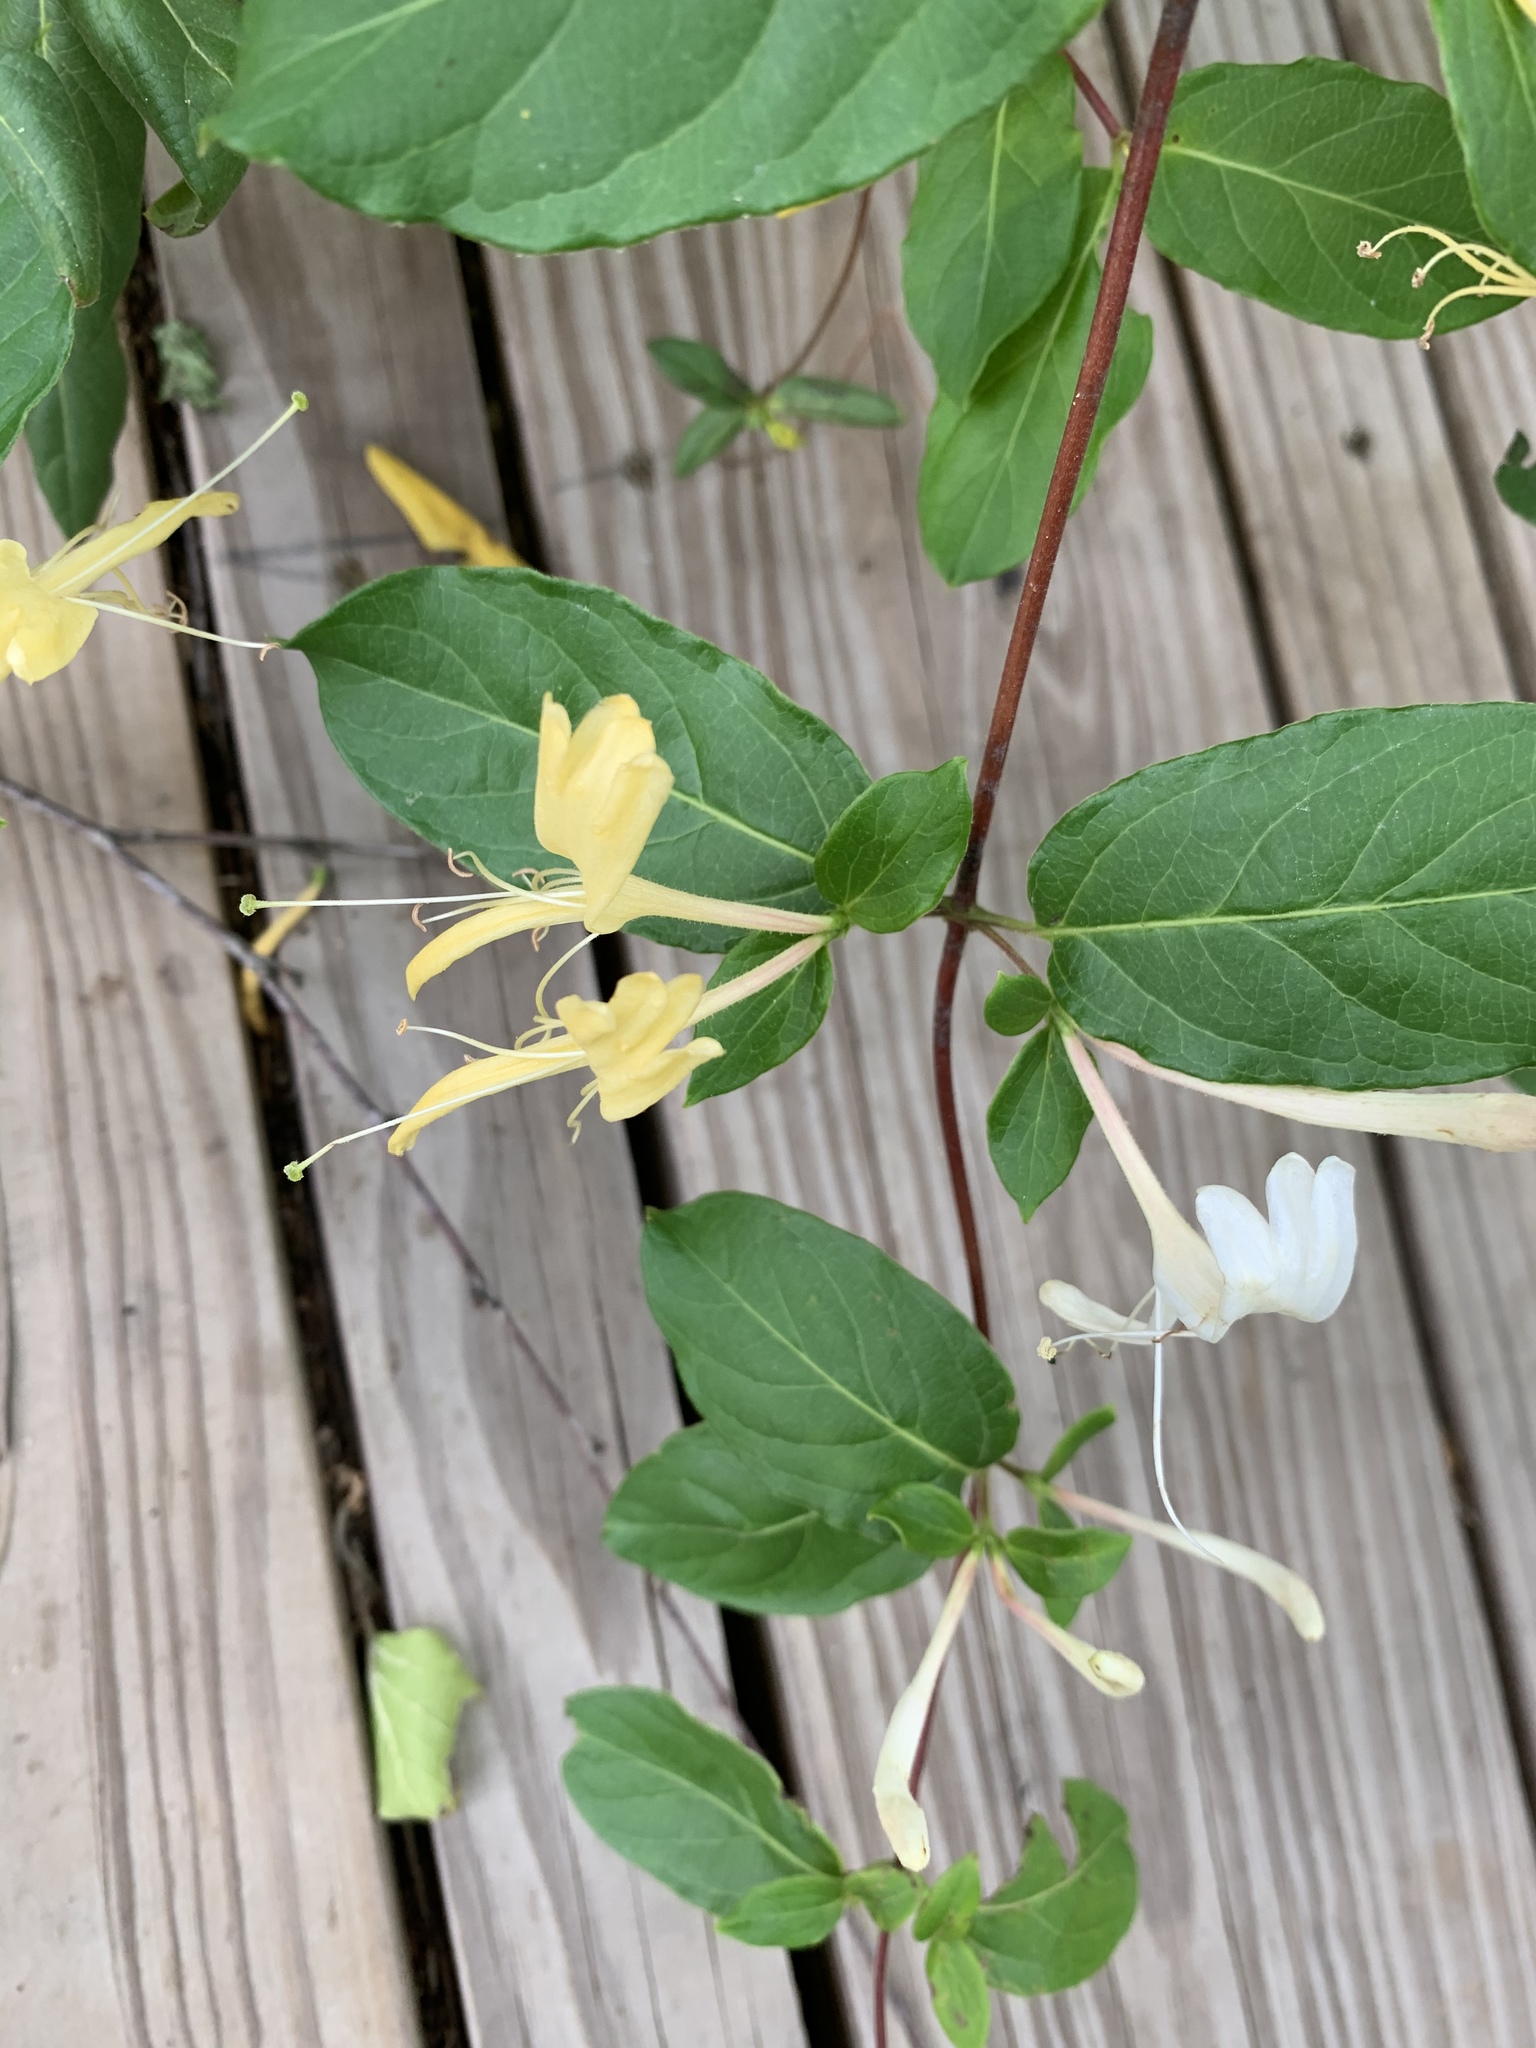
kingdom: Plantae
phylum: Tracheophyta
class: Magnoliopsida
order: Dipsacales
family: Caprifoliaceae
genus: Lonicera
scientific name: Lonicera japonica
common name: Japanese honeysuckle
